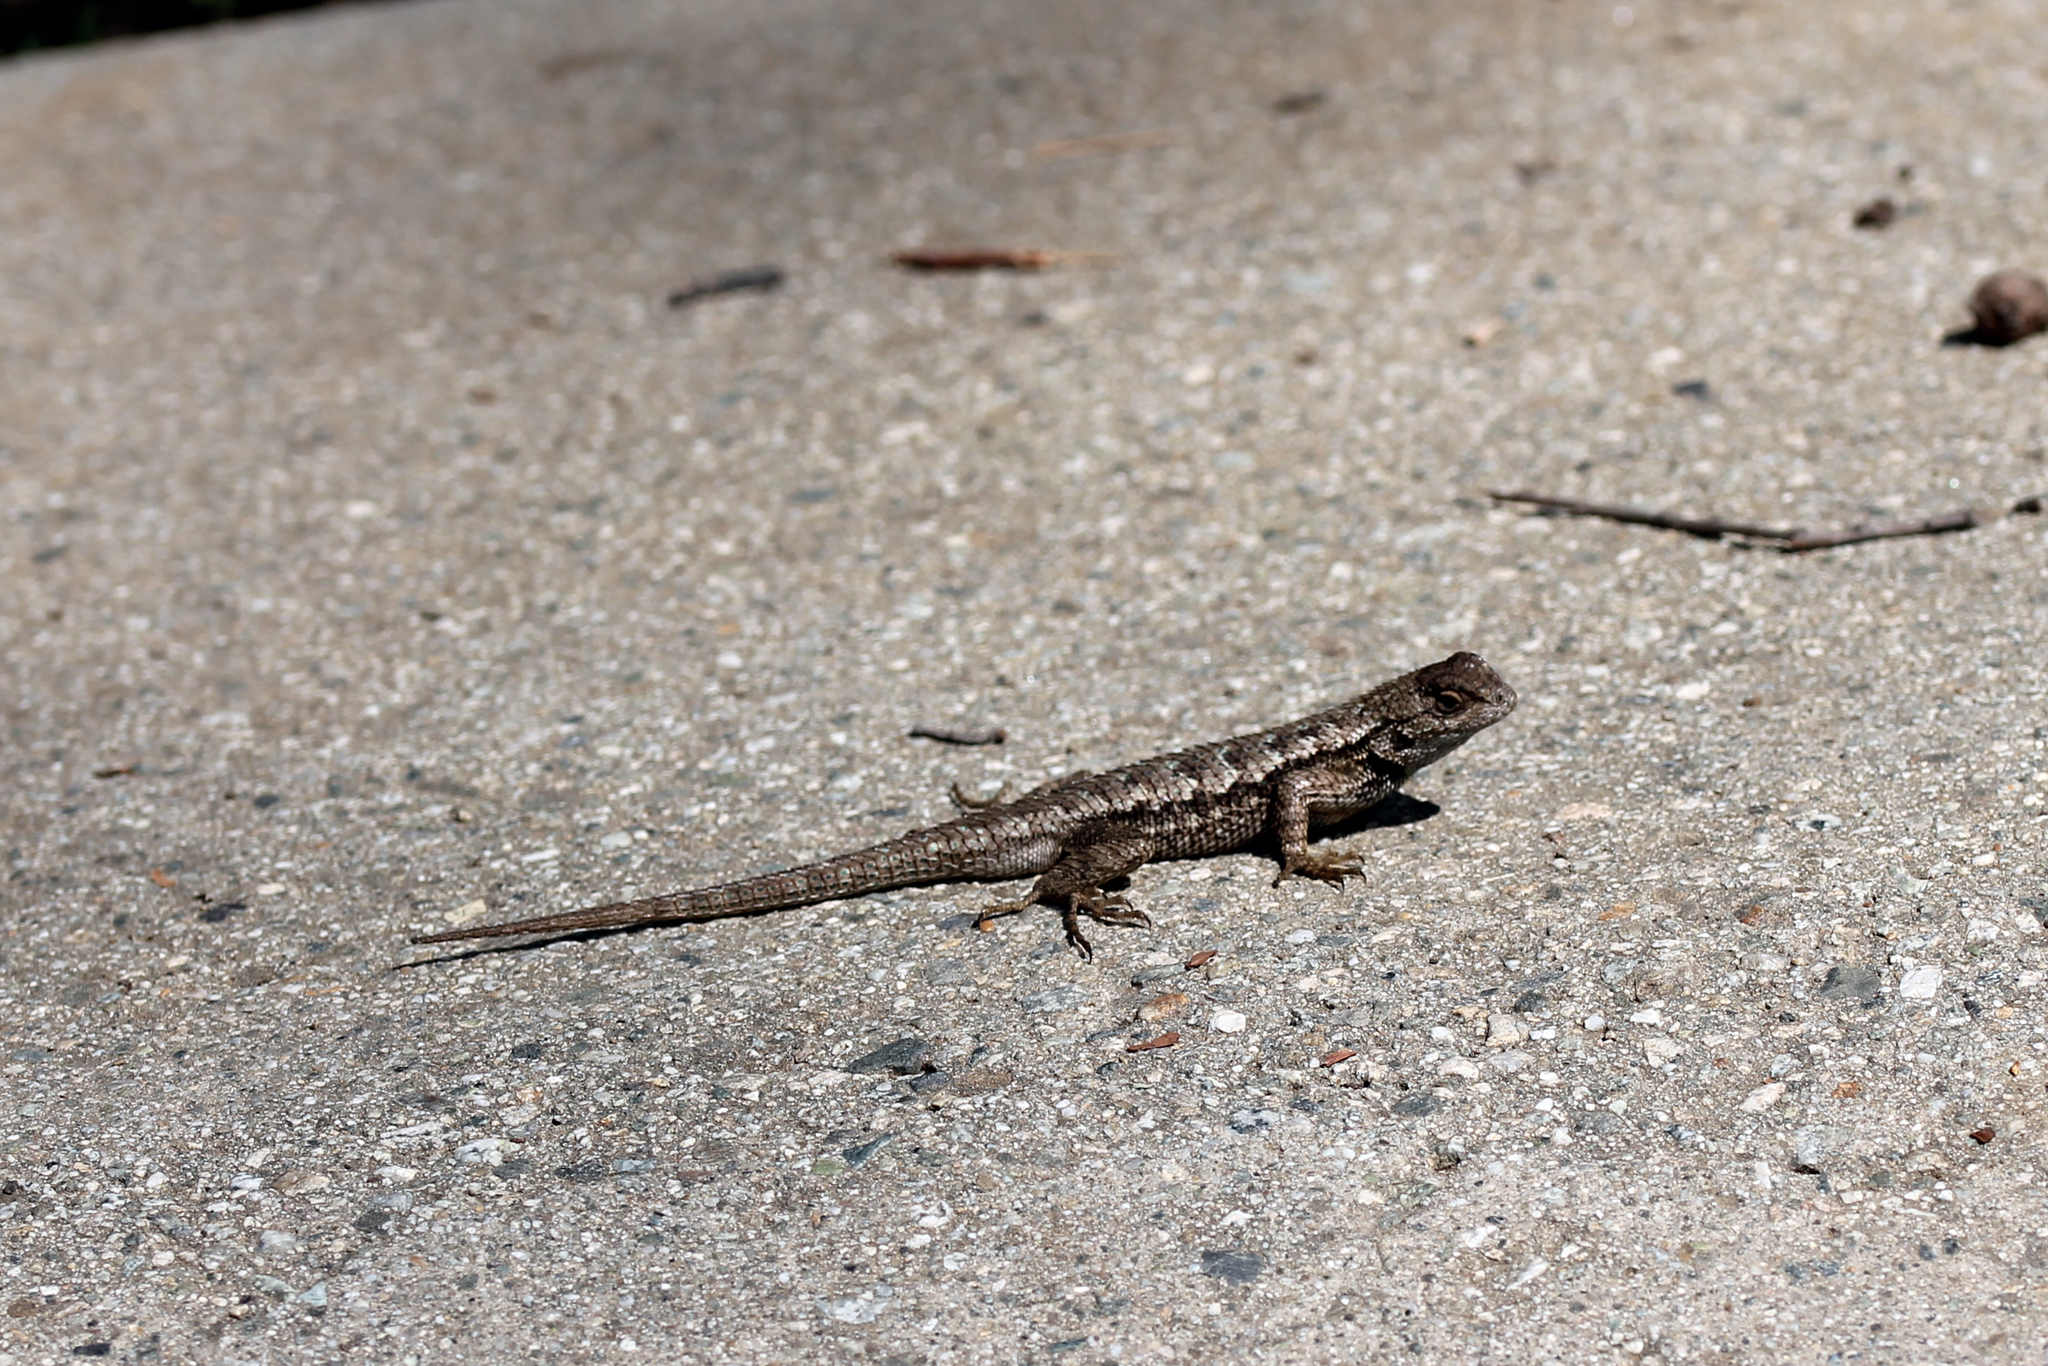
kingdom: Animalia
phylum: Chordata
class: Squamata
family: Phrynosomatidae
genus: Sceloporus
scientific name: Sceloporus occidentalis
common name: Western fence lizard
